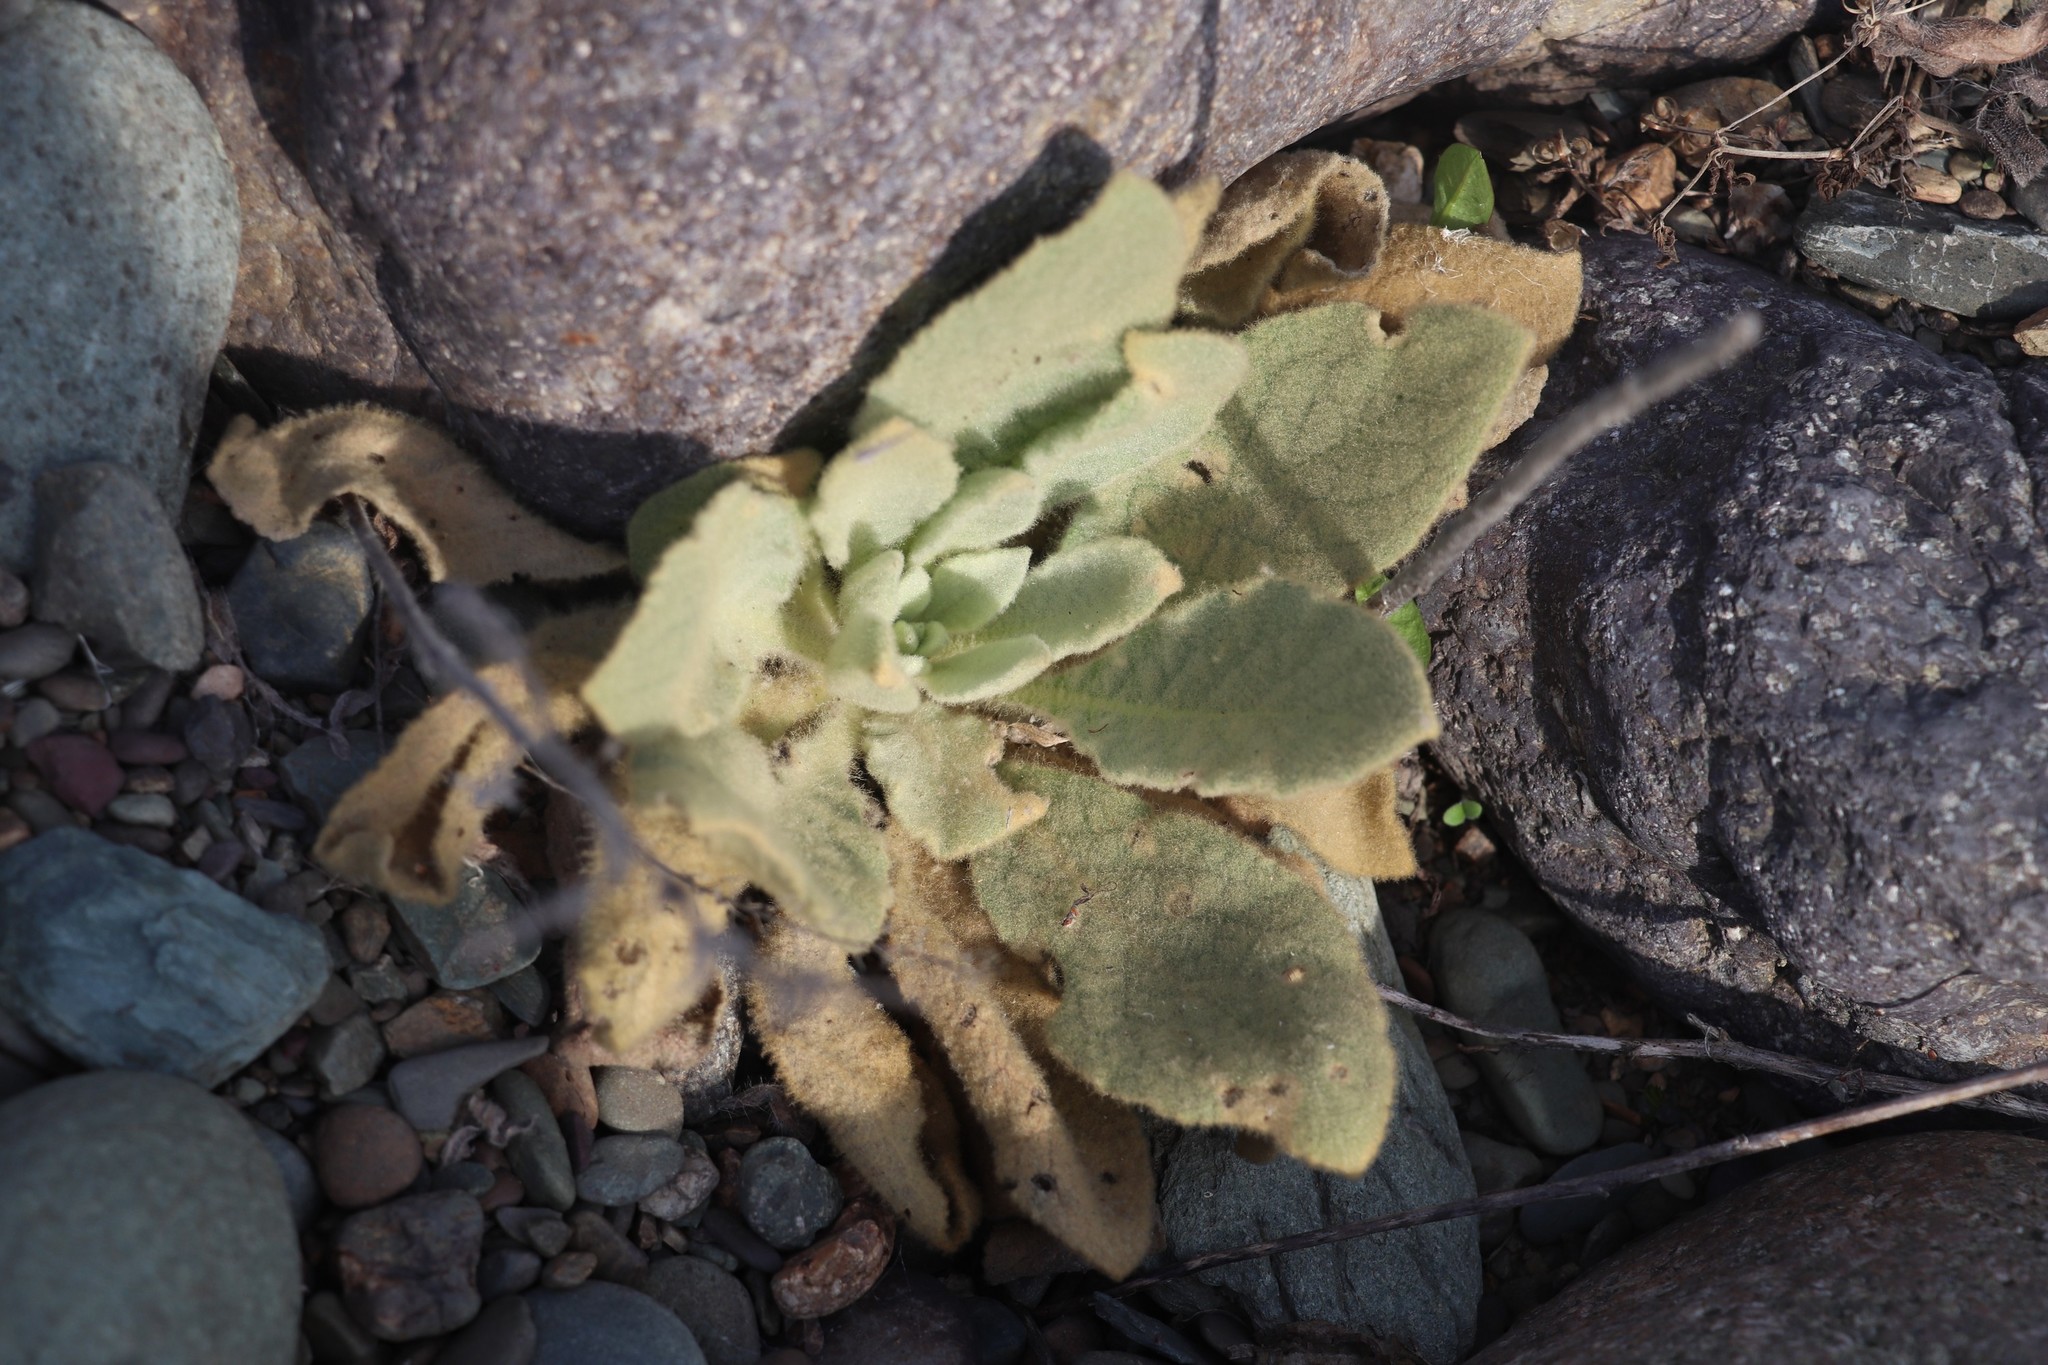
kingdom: Plantae
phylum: Tracheophyta
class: Magnoliopsida
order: Lamiales
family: Scrophulariaceae
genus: Verbascum
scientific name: Verbascum thapsus
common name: Common mullein
